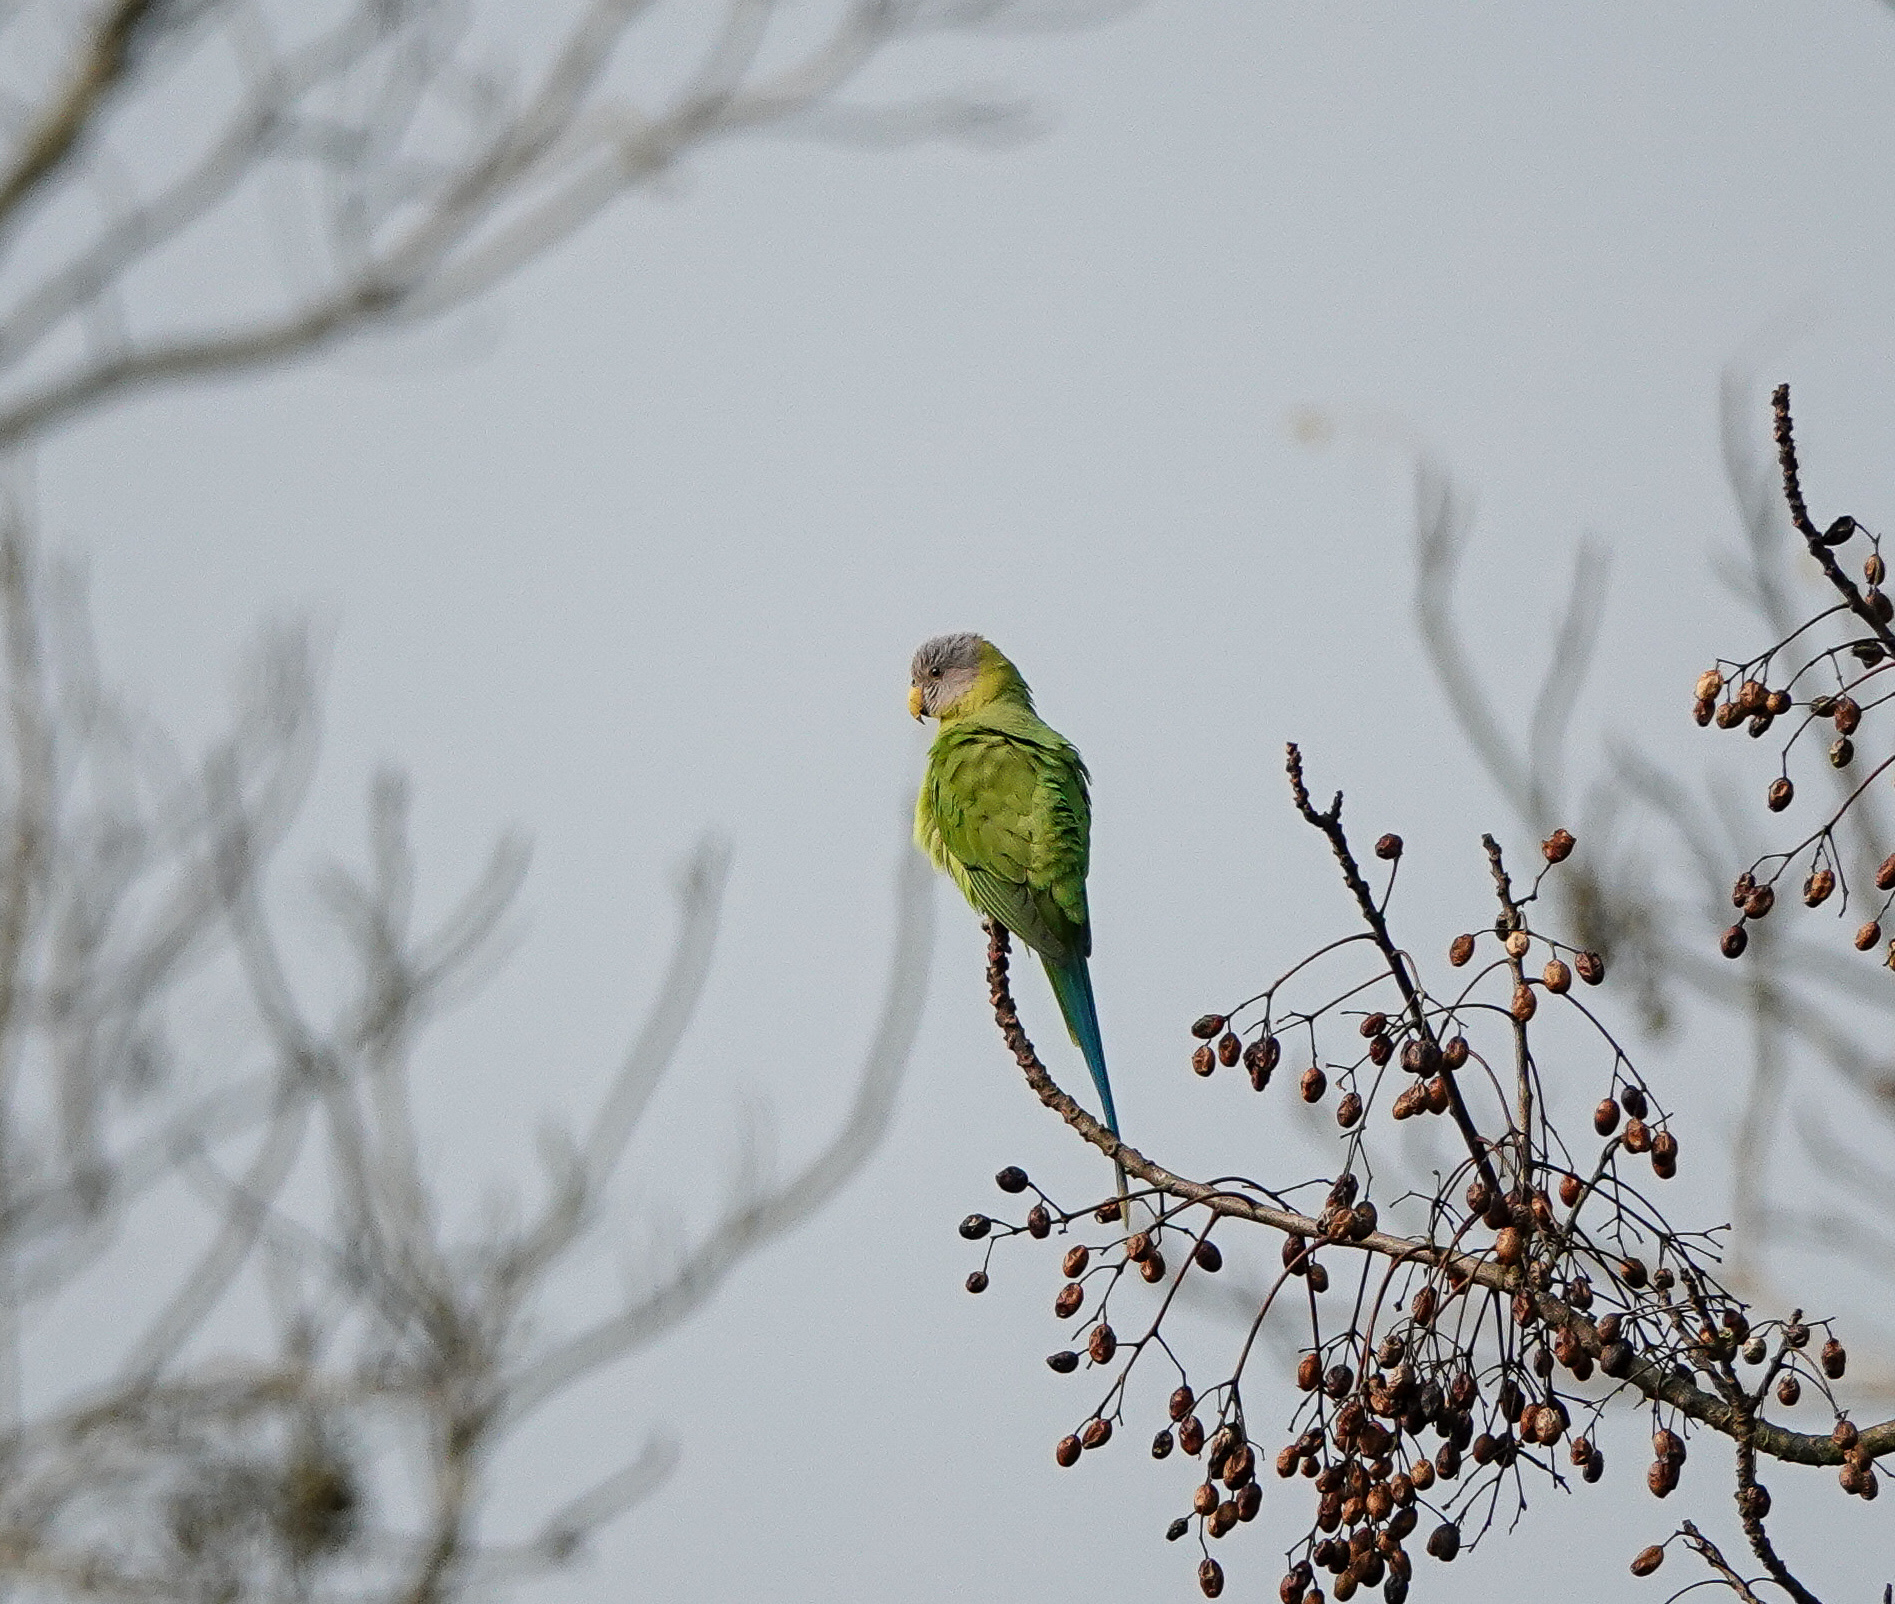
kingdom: Animalia
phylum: Chordata
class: Aves
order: Psittaciformes
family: Psittacidae
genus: Psittacula
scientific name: Psittacula roseata
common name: Blossom-headed parakeet
